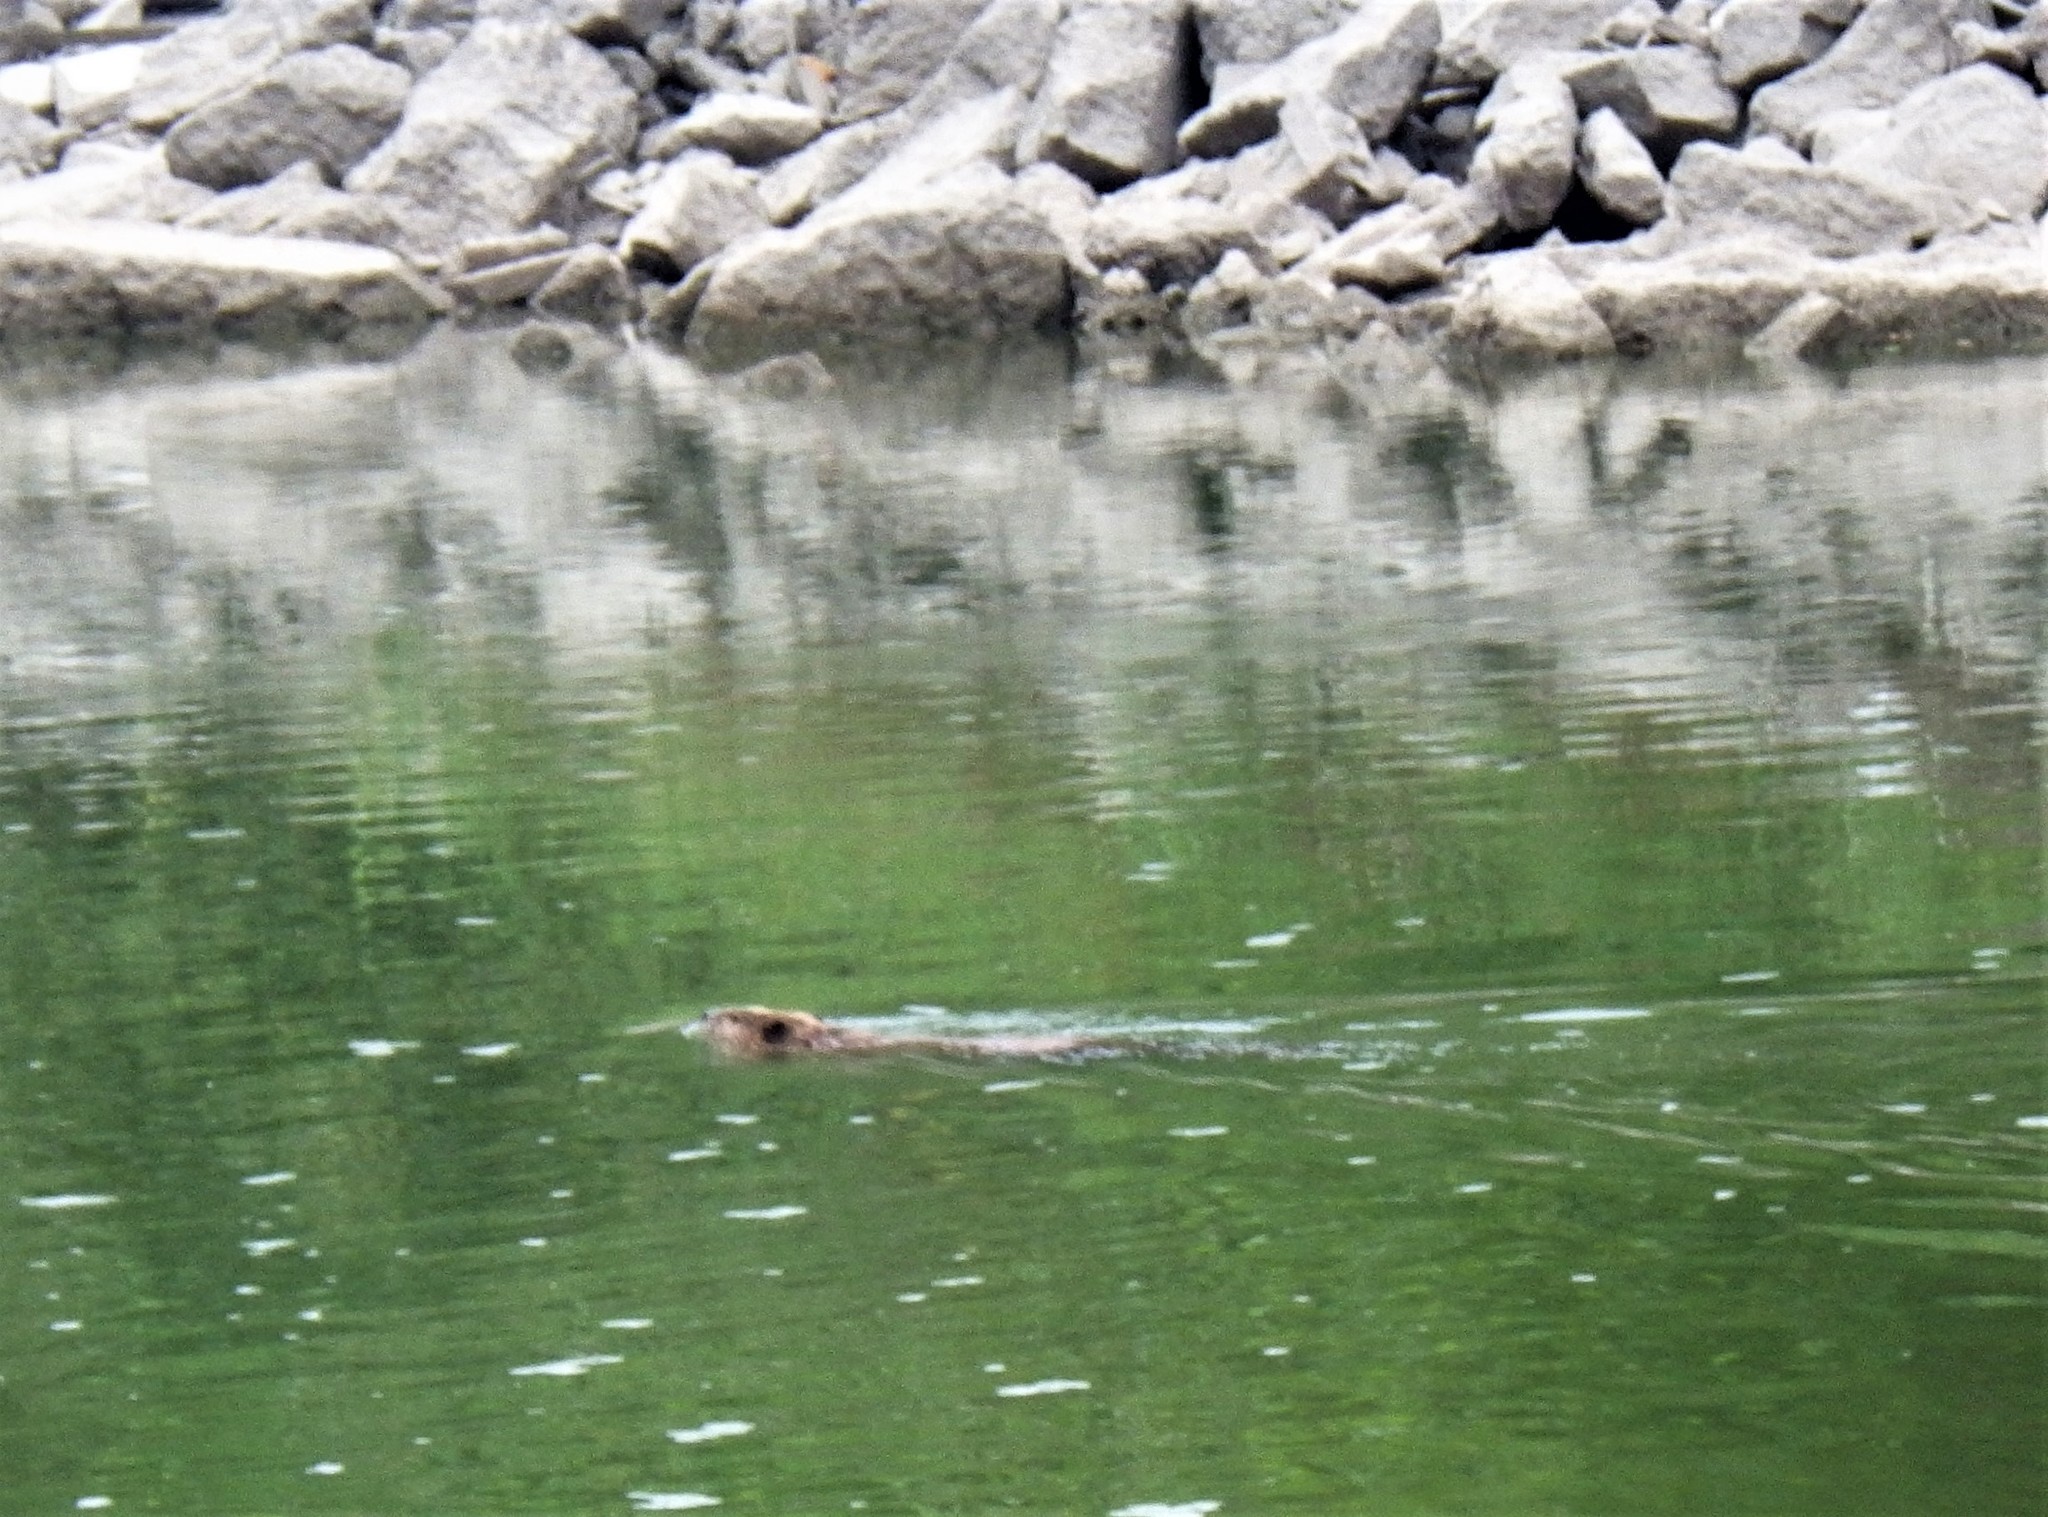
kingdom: Animalia
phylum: Chordata
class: Mammalia
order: Rodentia
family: Castoridae
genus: Castor
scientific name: Castor canadensis
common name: American beaver
